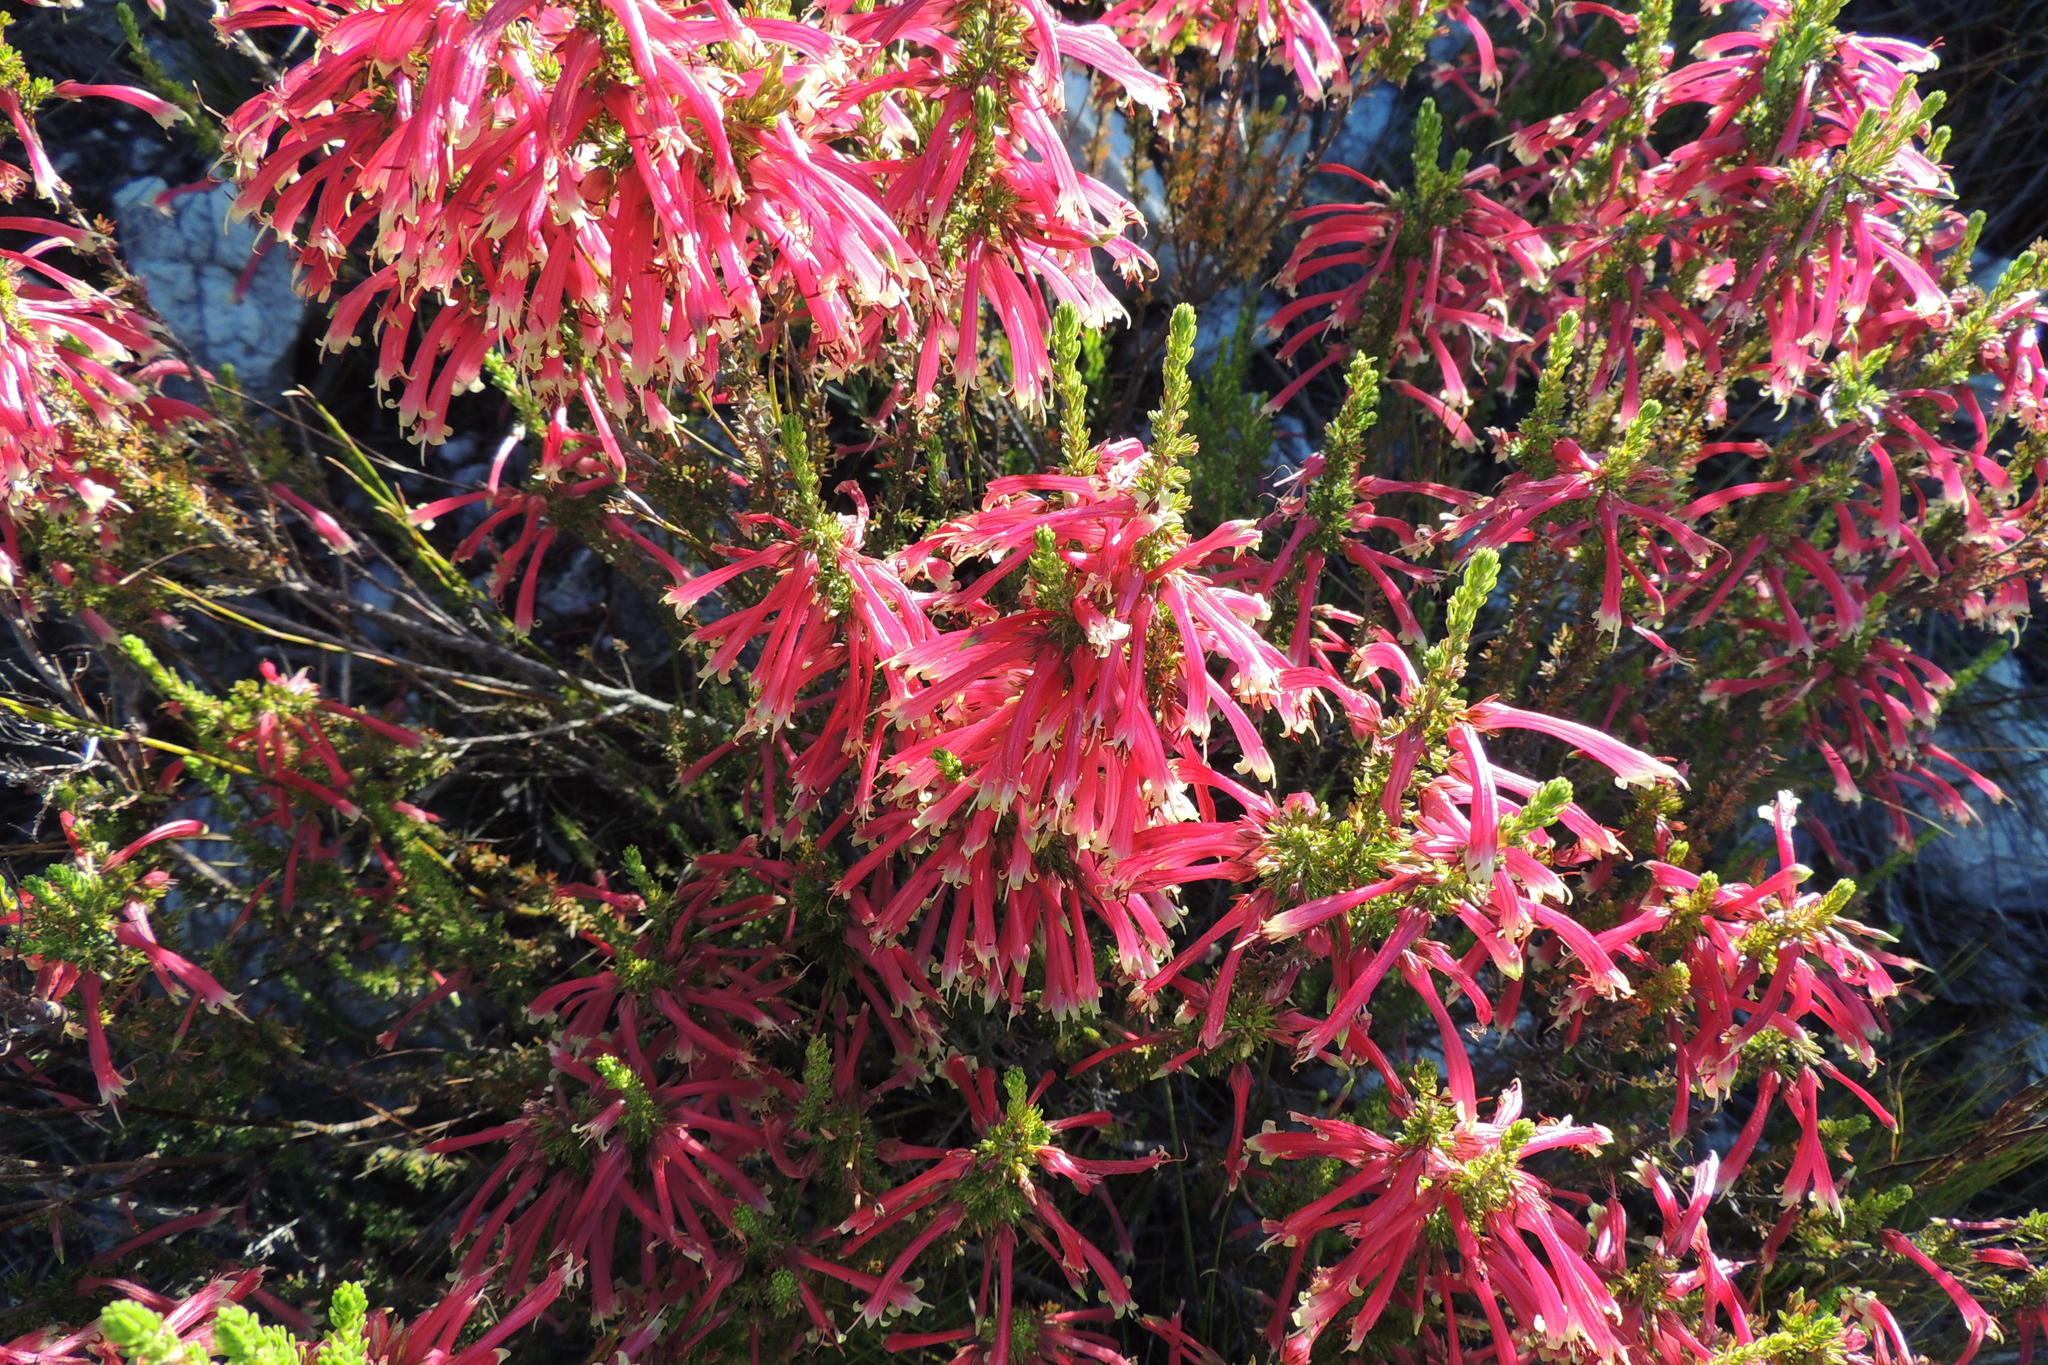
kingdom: Plantae
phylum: Tracheophyta
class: Magnoliopsida
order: Ericales
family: Ericaceae
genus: Erica
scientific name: Erica densifolia
